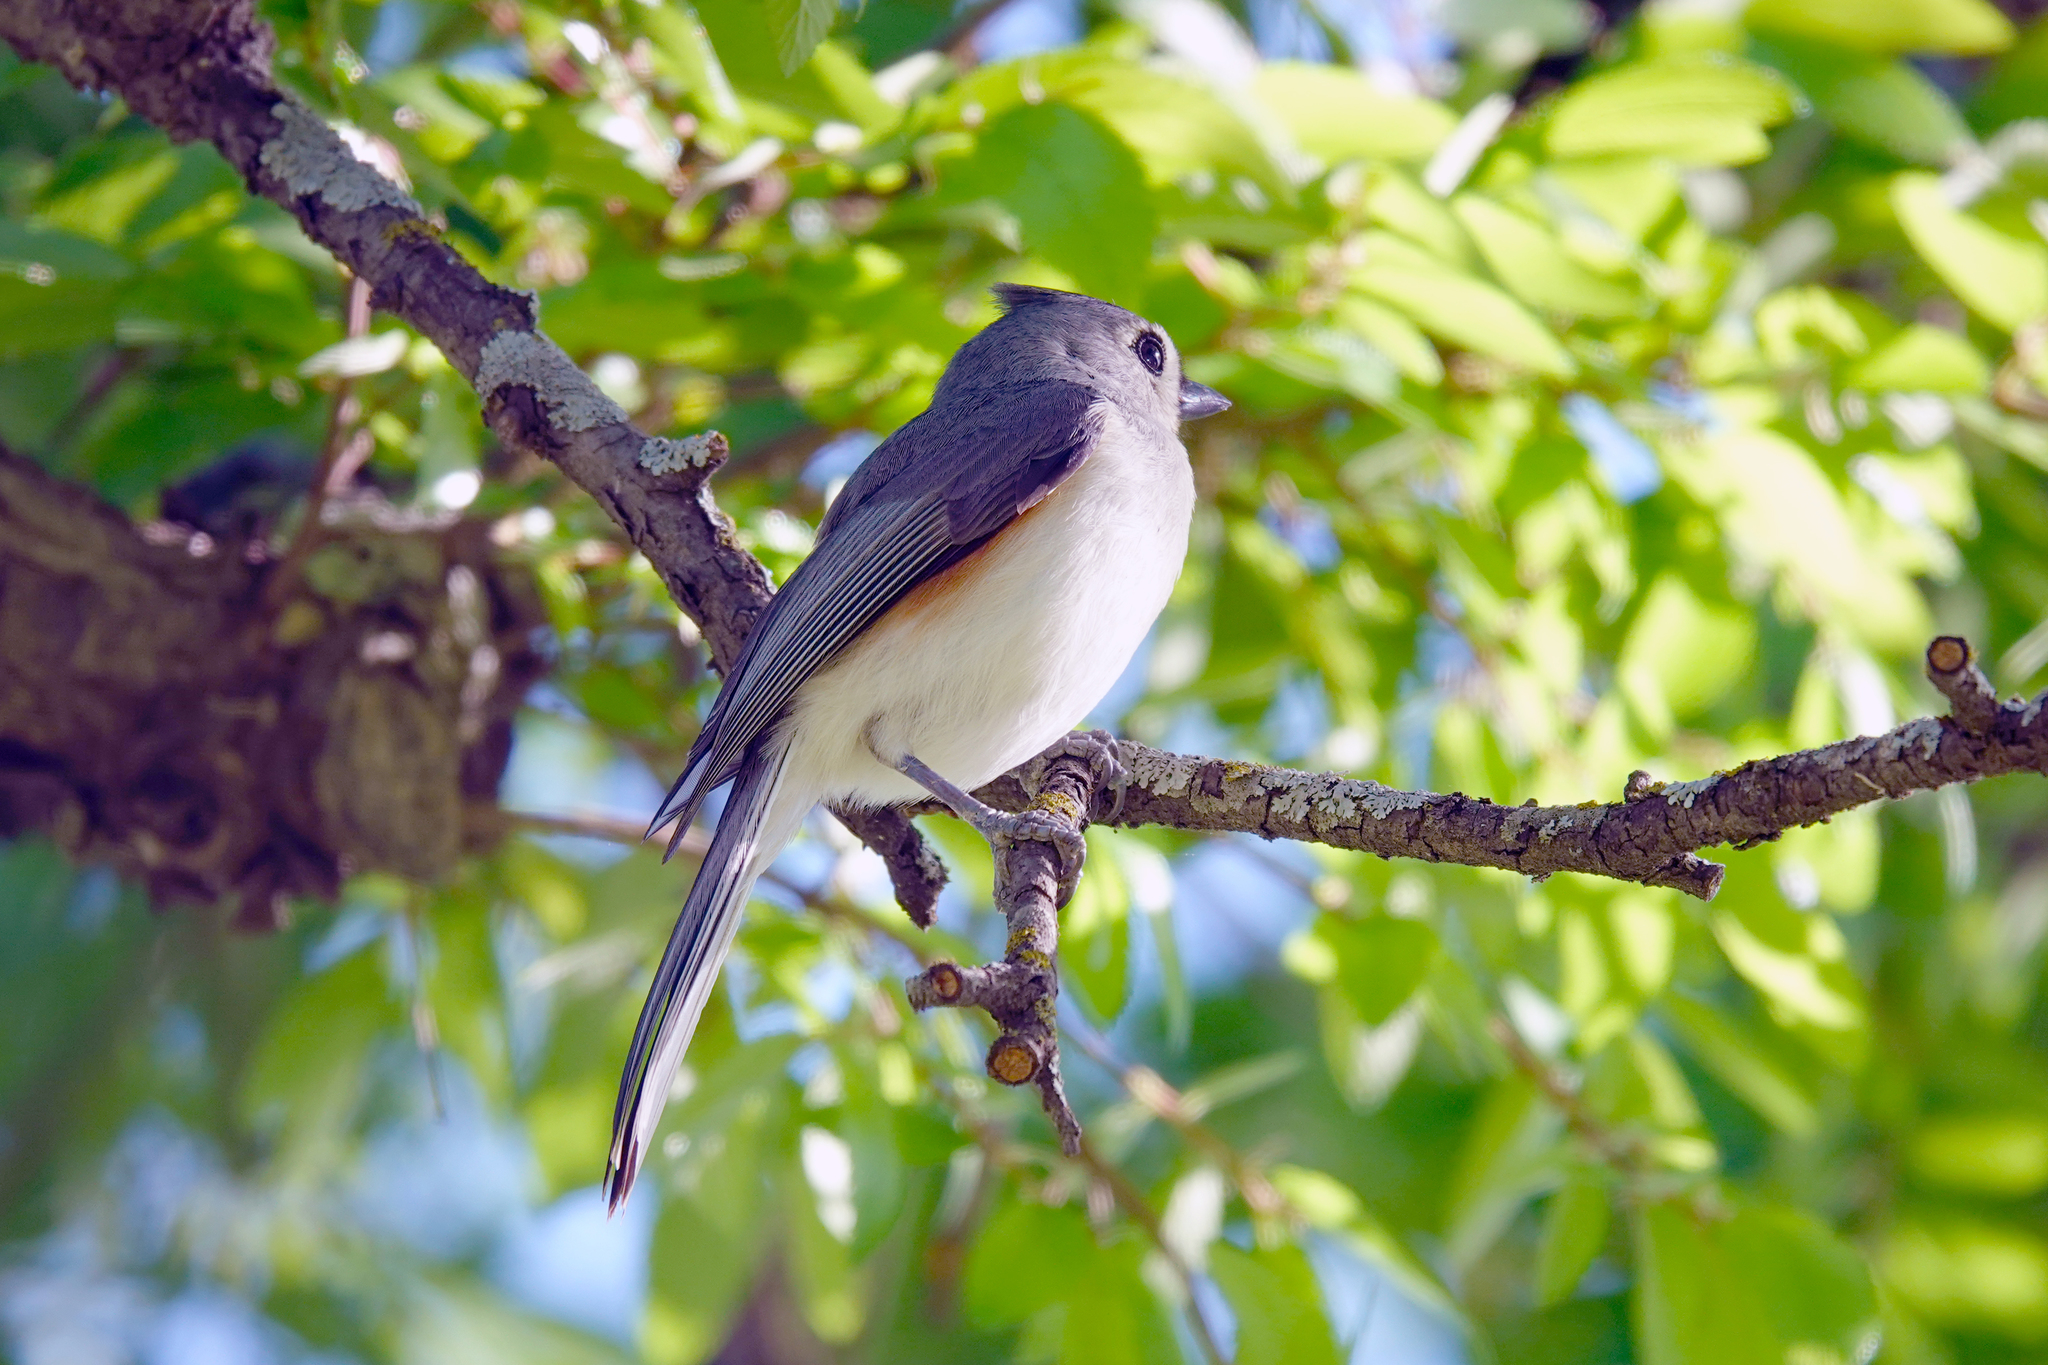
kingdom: Animalia
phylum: Chordata
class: Aves
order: Passeriformes
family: Paridae
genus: Baeolophus
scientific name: Baeolophus bicolor
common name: Tufted titmouse
